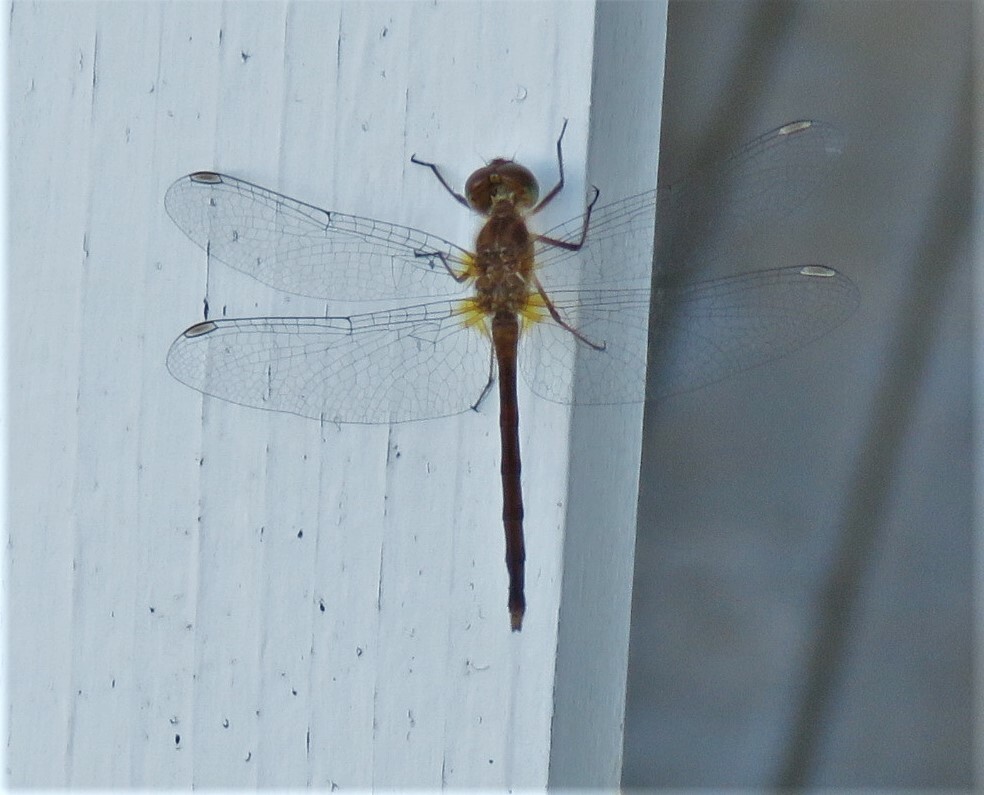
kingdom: Animalia
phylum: Arthropoda
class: Insecta
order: Odonata
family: Libellulidae
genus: Sympetrum
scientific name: Sympetrum vicinum
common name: Autumn meadowhawk
